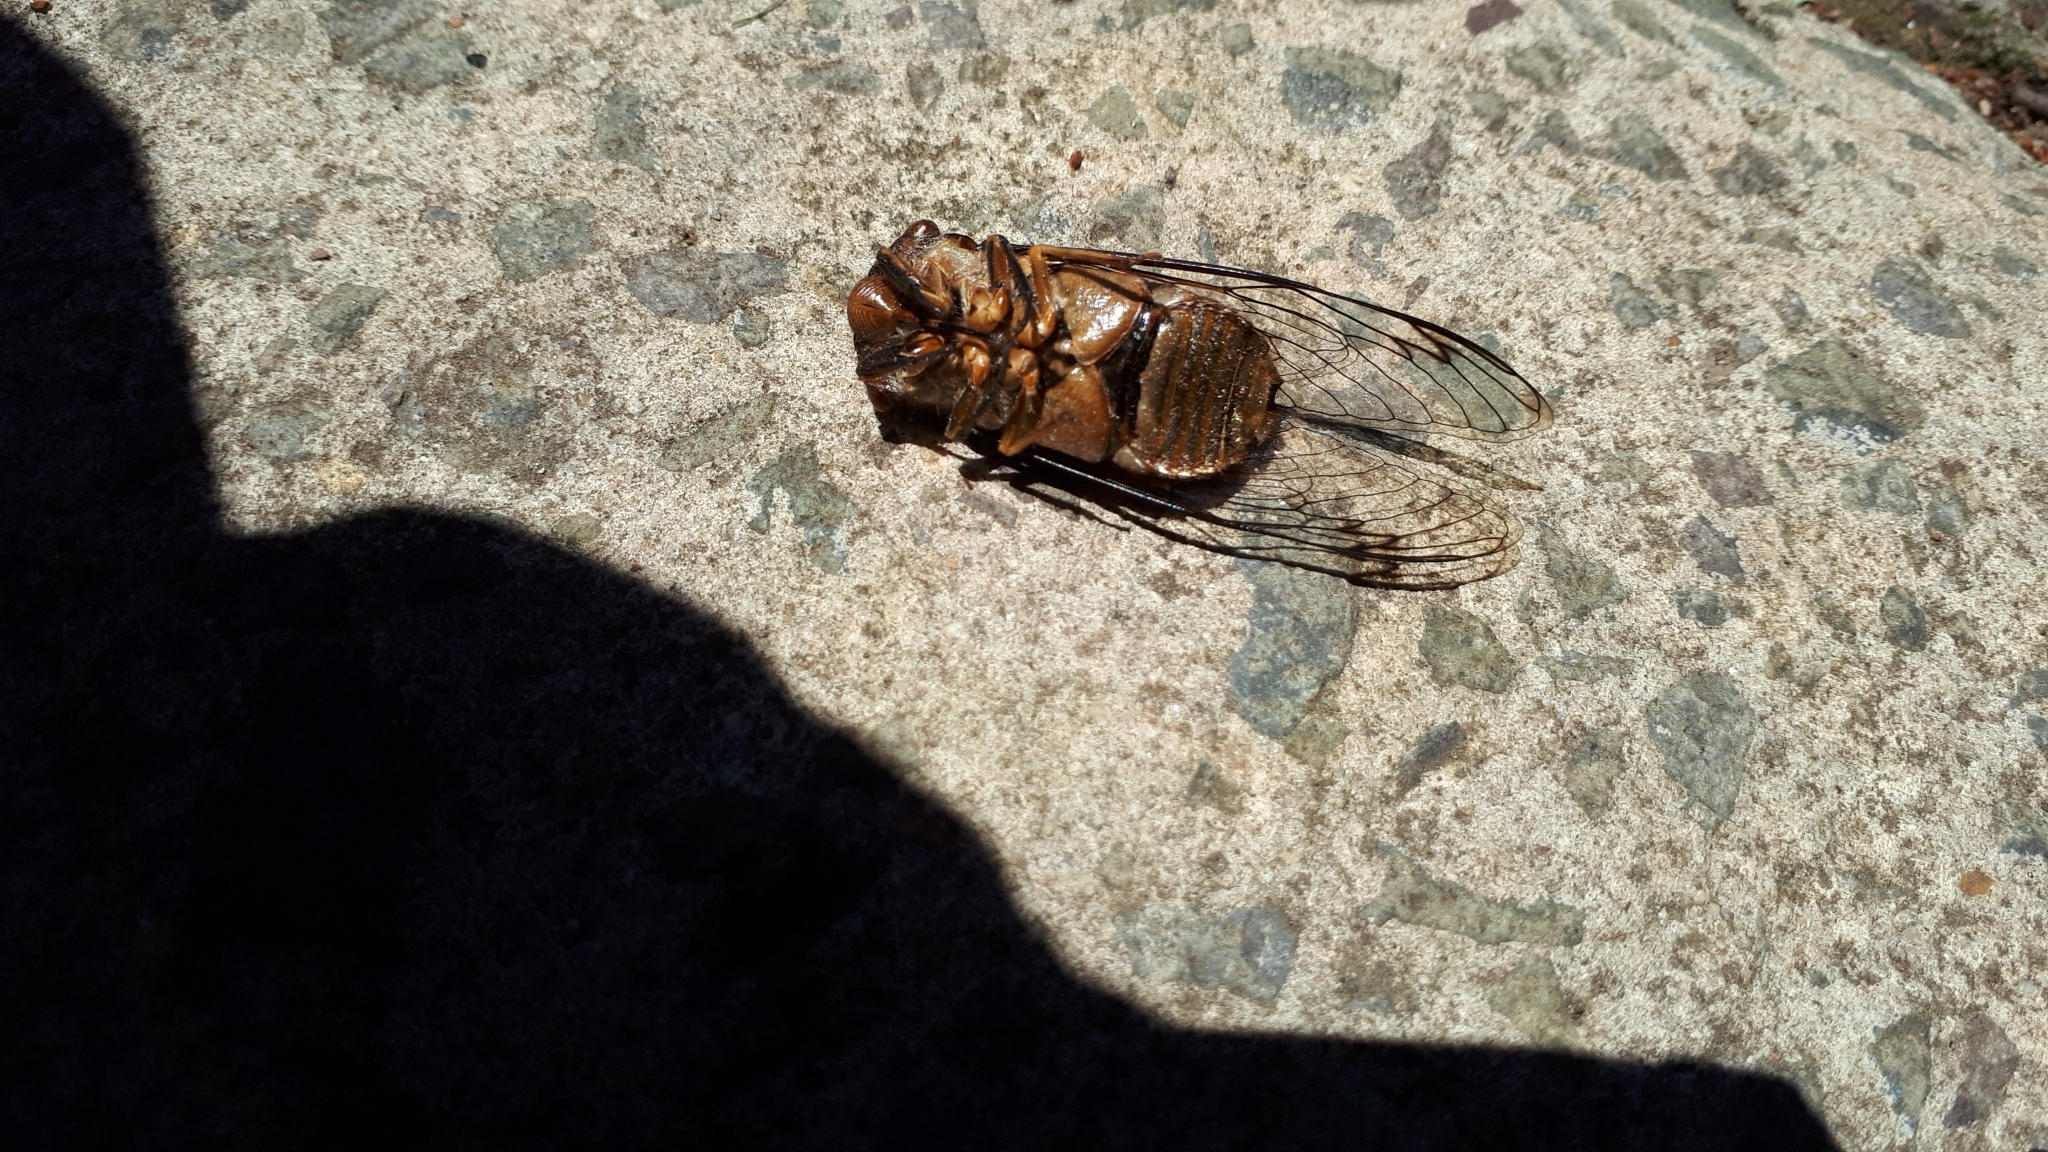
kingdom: Animalia
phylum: Arthropoda
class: Insecta
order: Hemiptera
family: Cicadidae
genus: Psaltoda
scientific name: Psaltoda plaga
